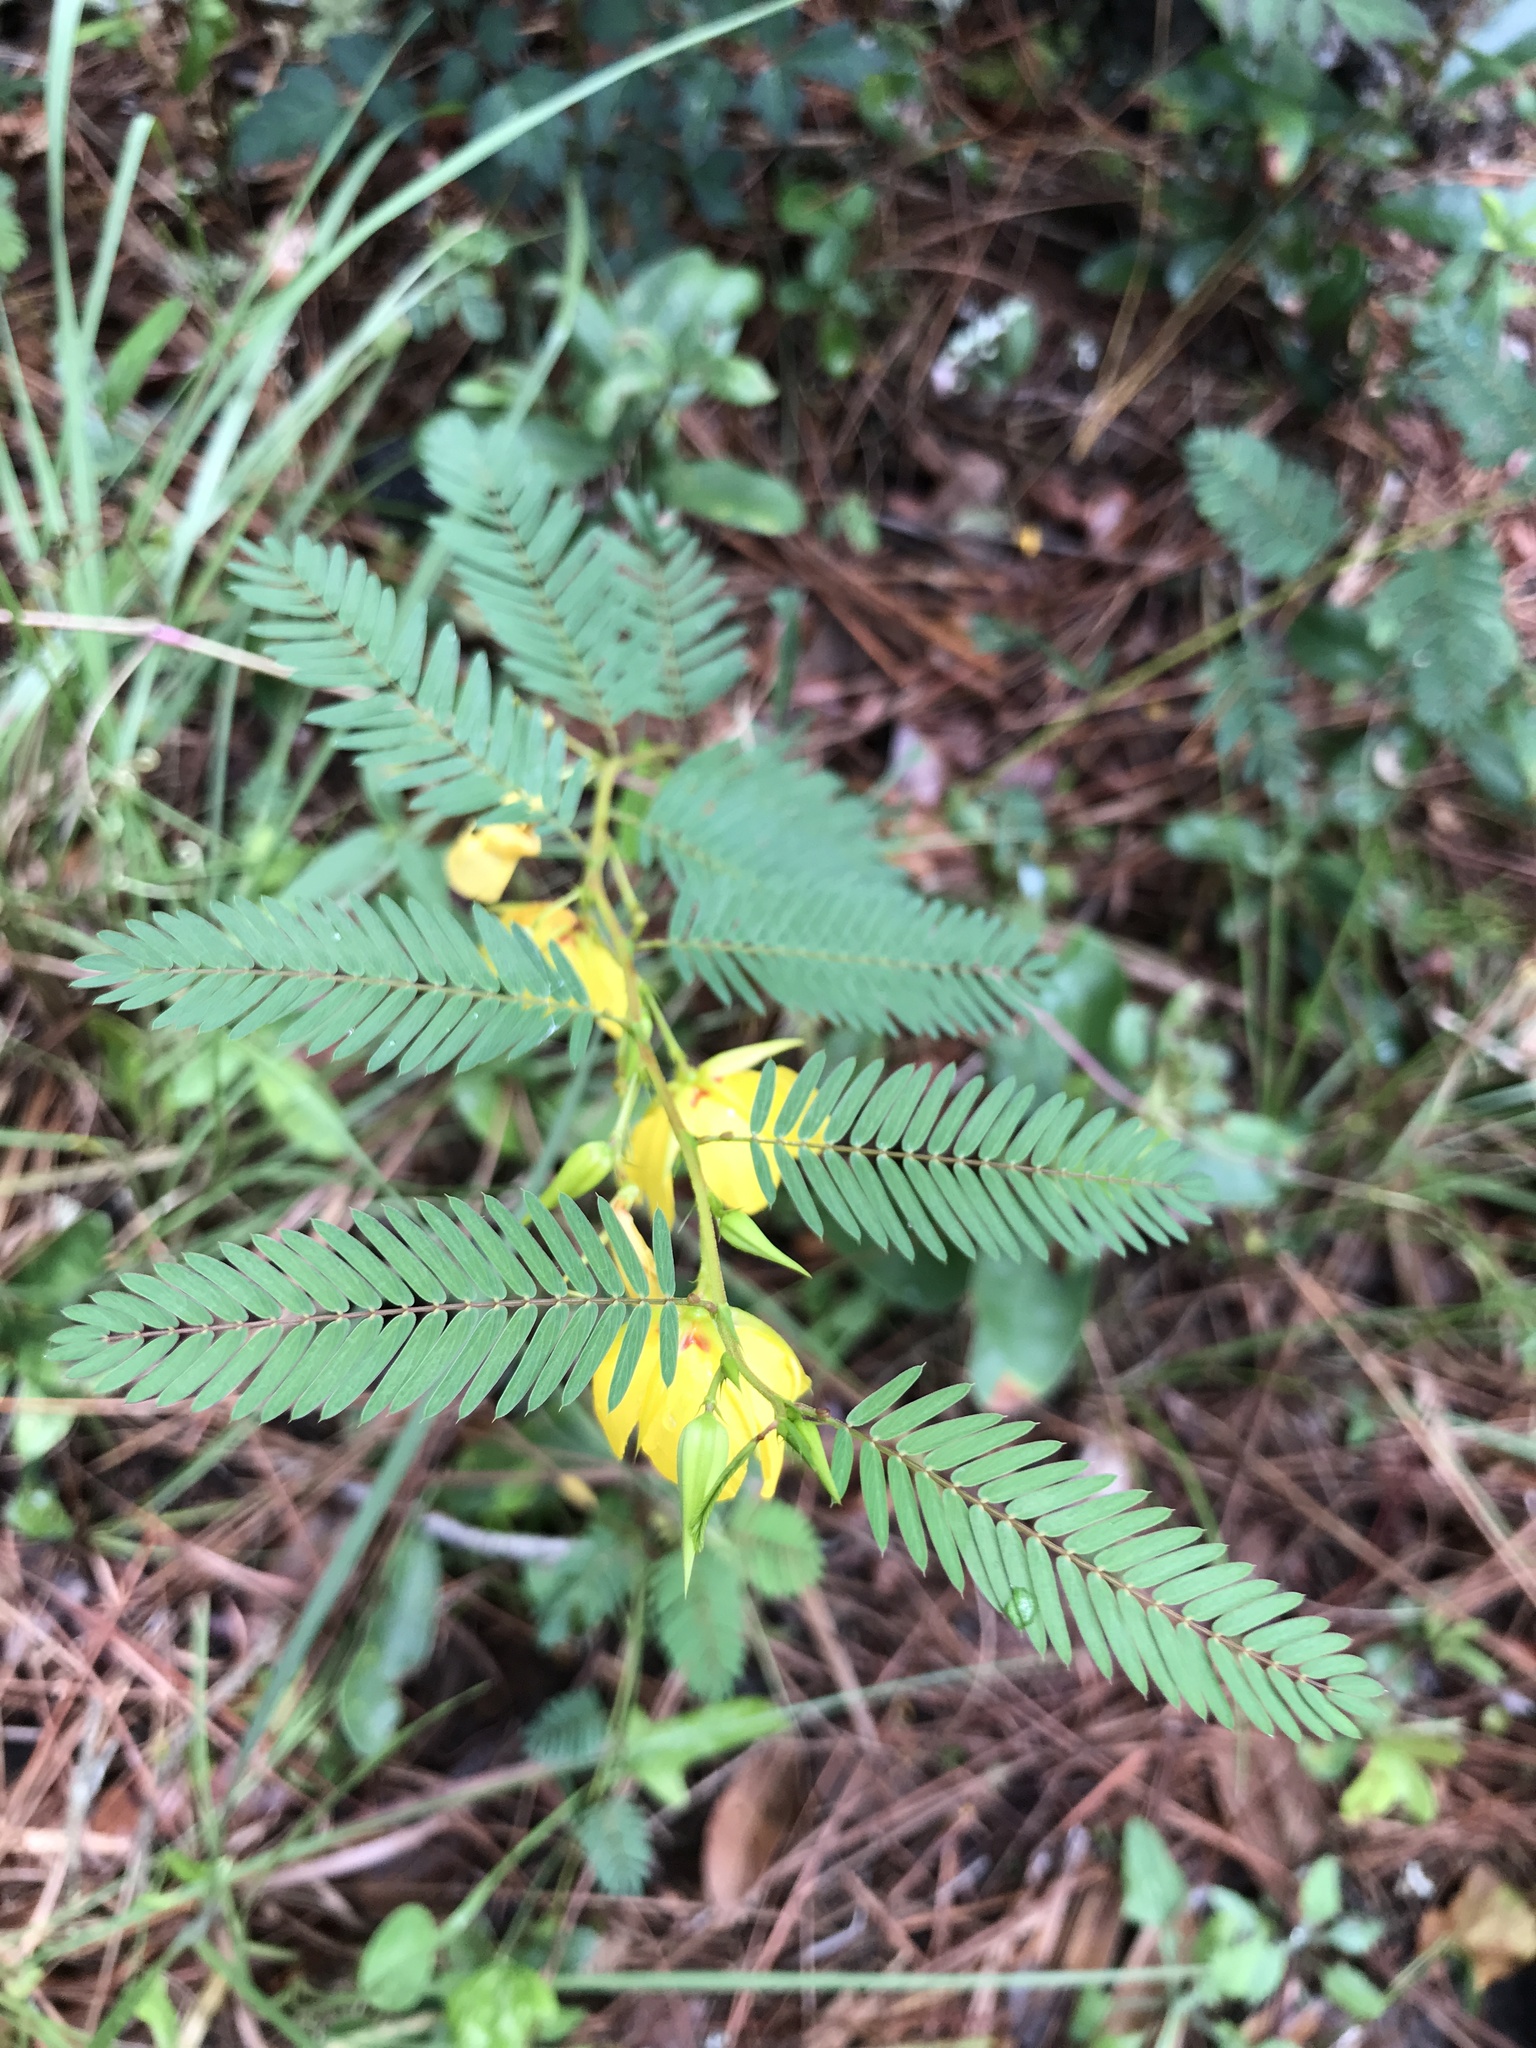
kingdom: Plantae
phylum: Tracheophyta
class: Magnoliopsida
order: Fabales
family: Fabaceae
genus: Chamaecrista
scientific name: Chamaecrista fasciculata
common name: Golden cassia
